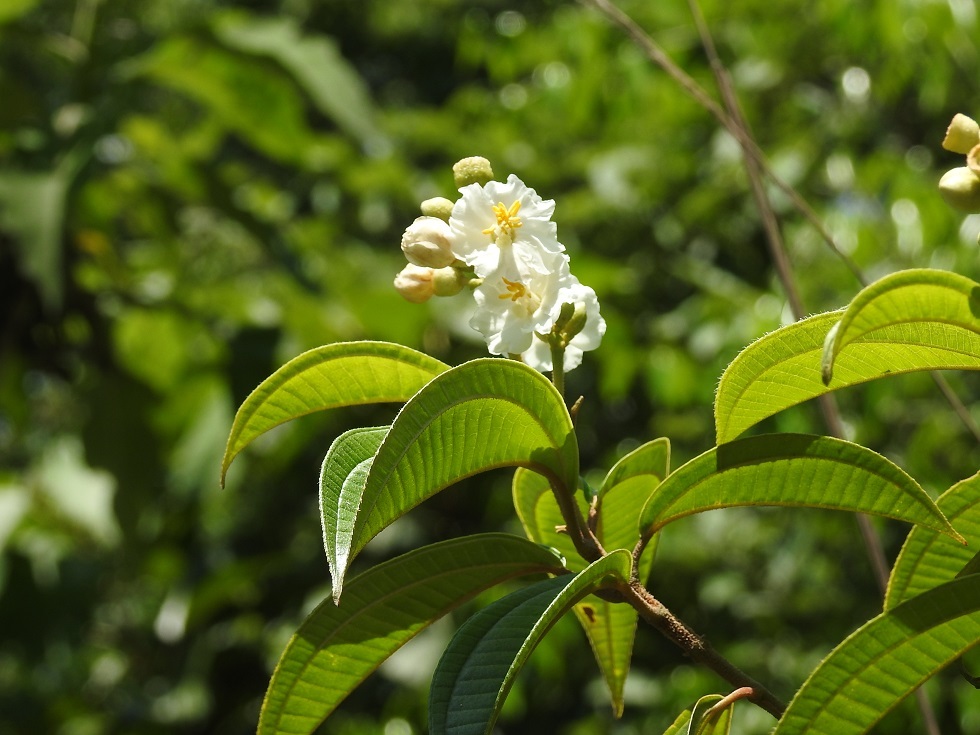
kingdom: Plantae
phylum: Tracheophyta
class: Magnoliopsida
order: Myrtales
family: Melastomataceae
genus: Miconia
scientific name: Miconia subhirsuta
